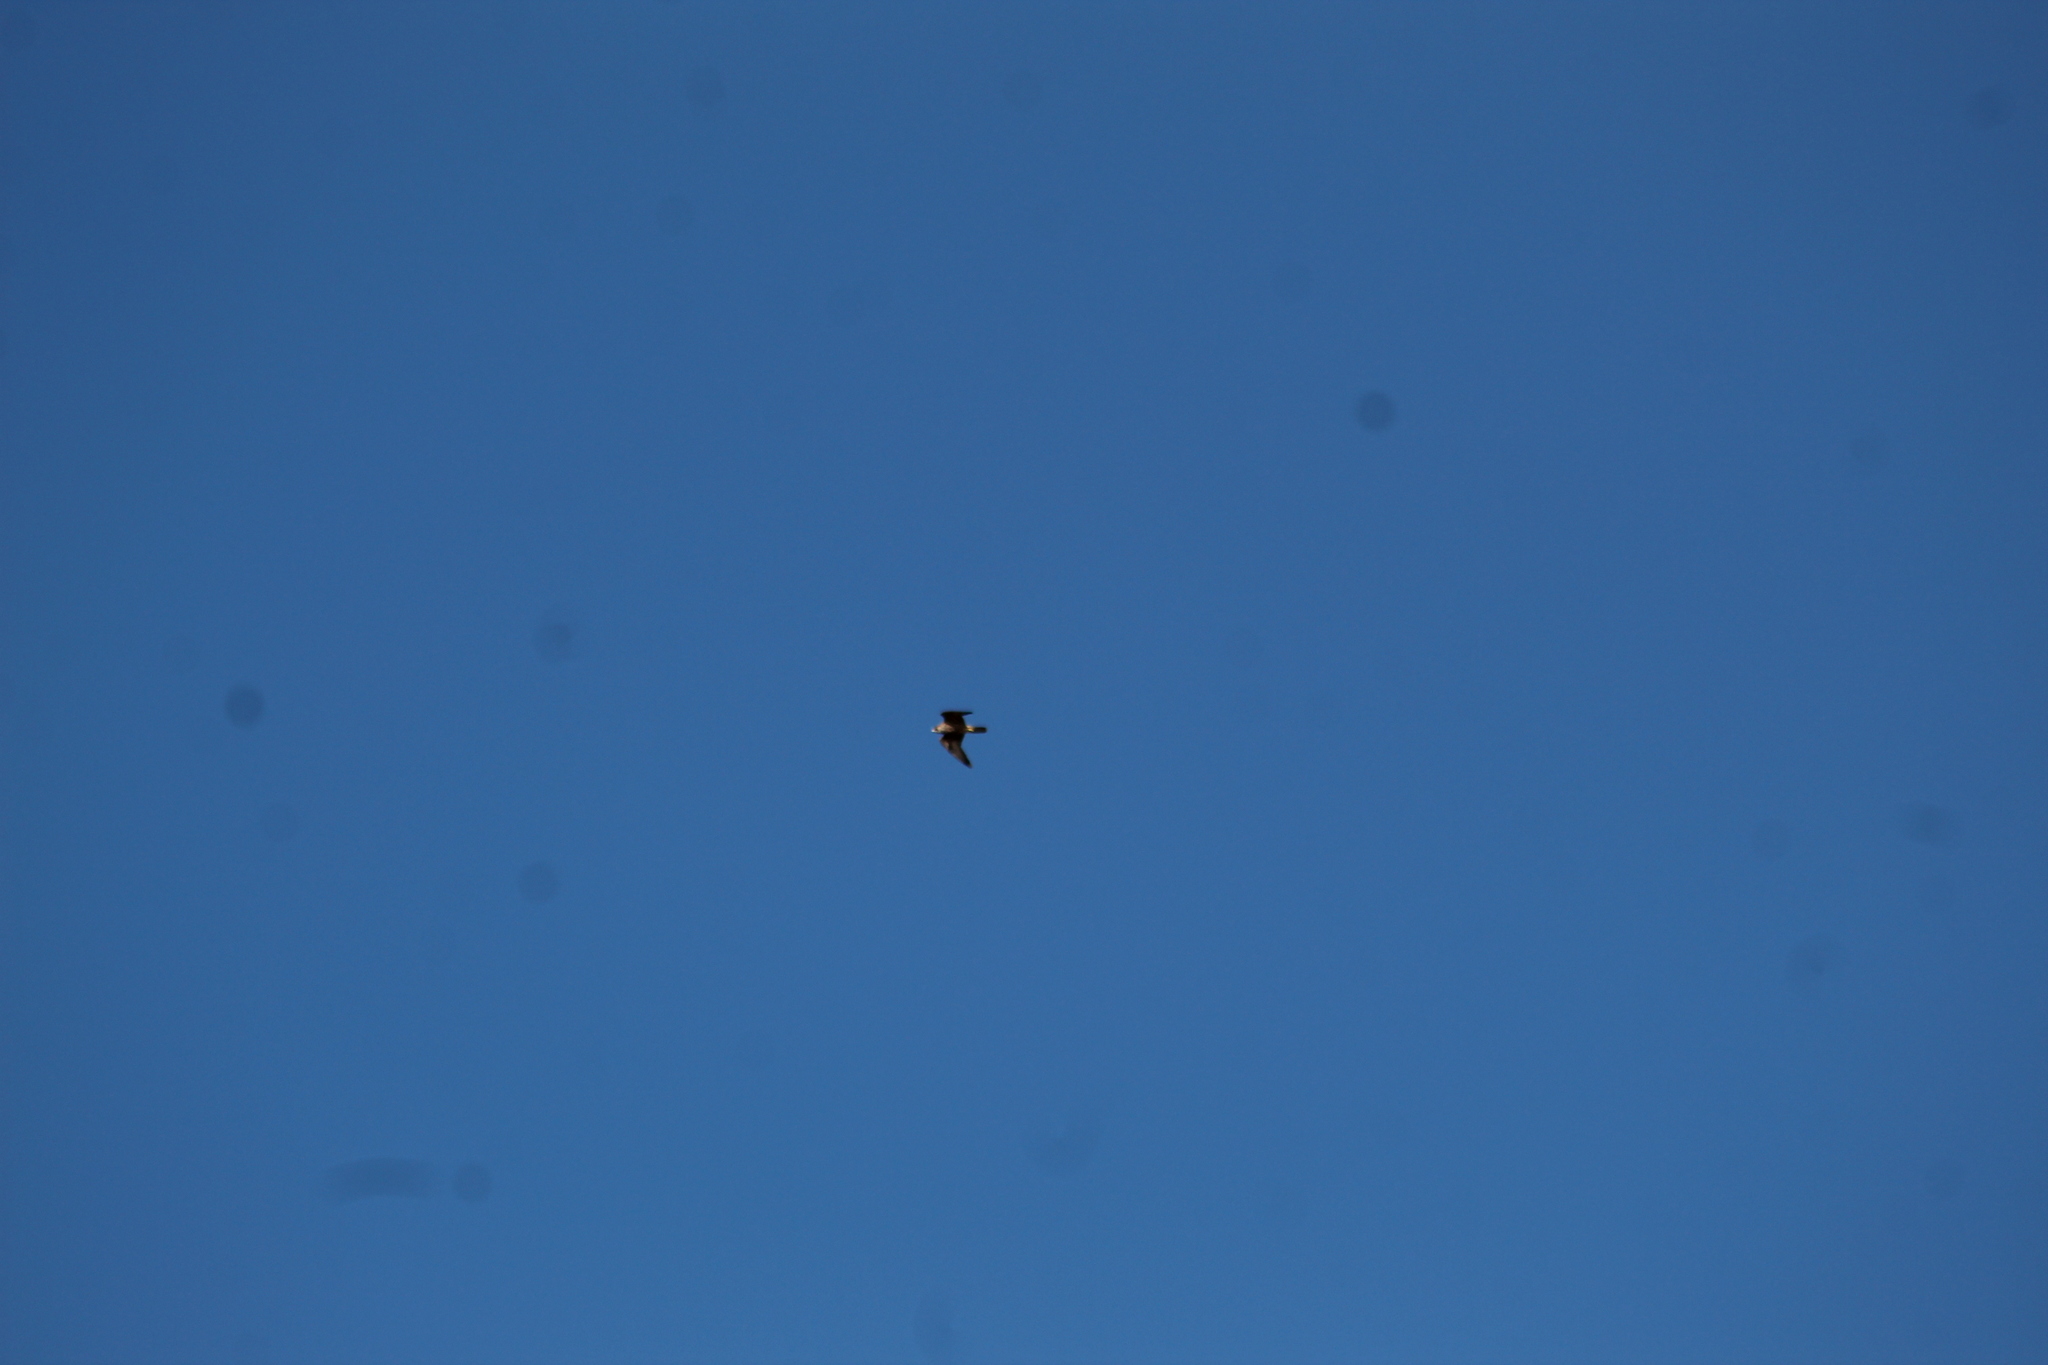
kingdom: Animalia
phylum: Chordata
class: Aves
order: Falconiformes
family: Falconidae
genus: Falco
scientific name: Falco peregrinus
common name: Peregrine falcon
